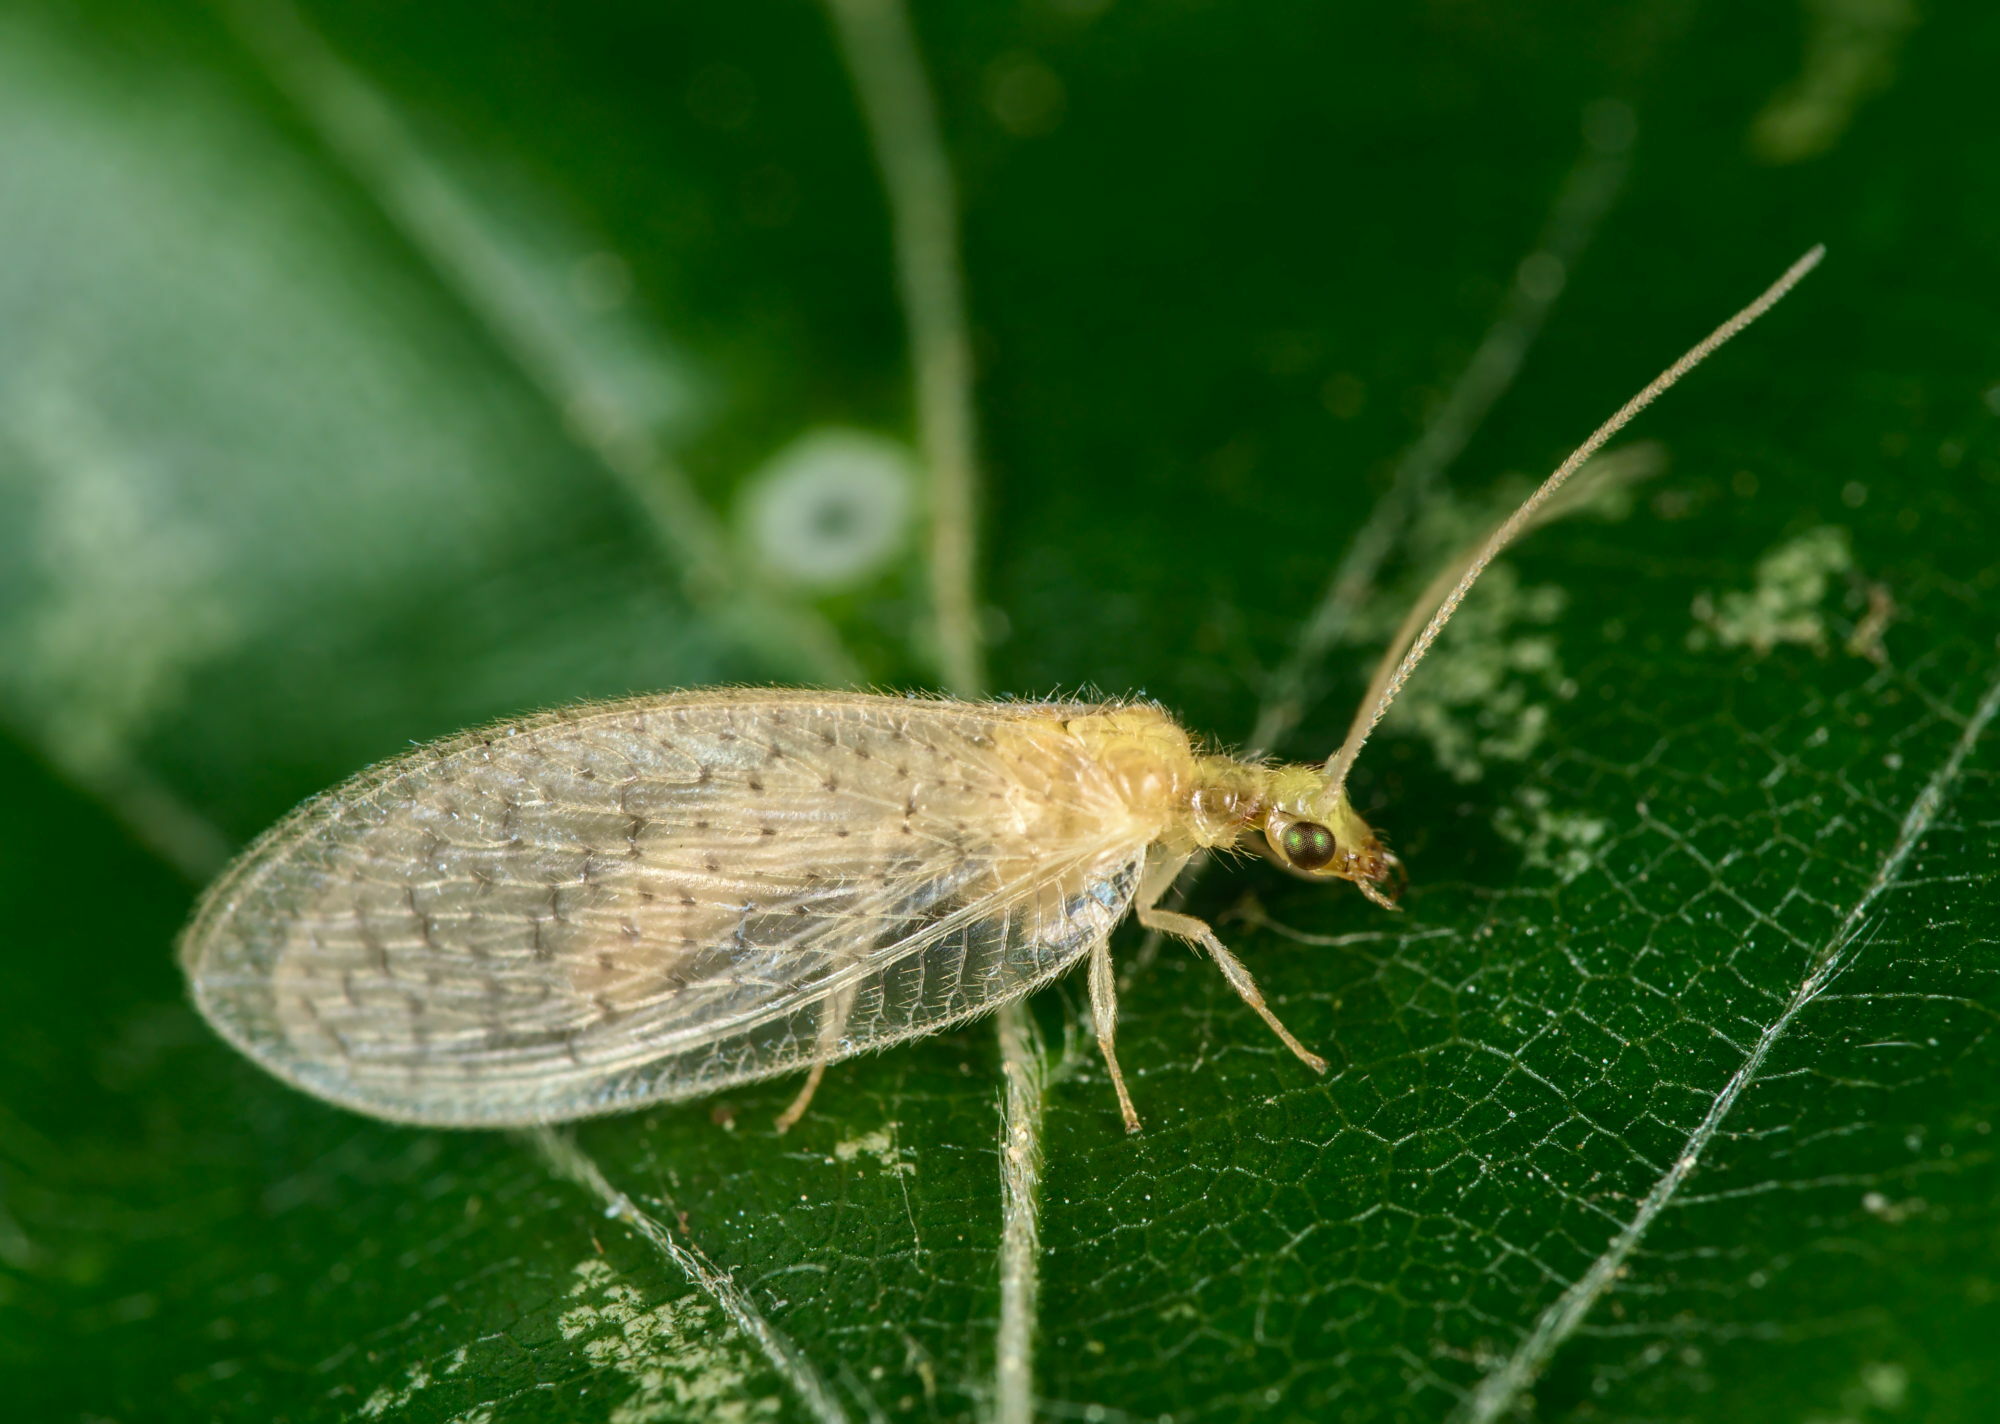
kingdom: Animalia
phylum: Arthropoda
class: Insecta
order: Neuroptera
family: Hemerobiidae
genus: Hemerobius
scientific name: Hemerobius micans
